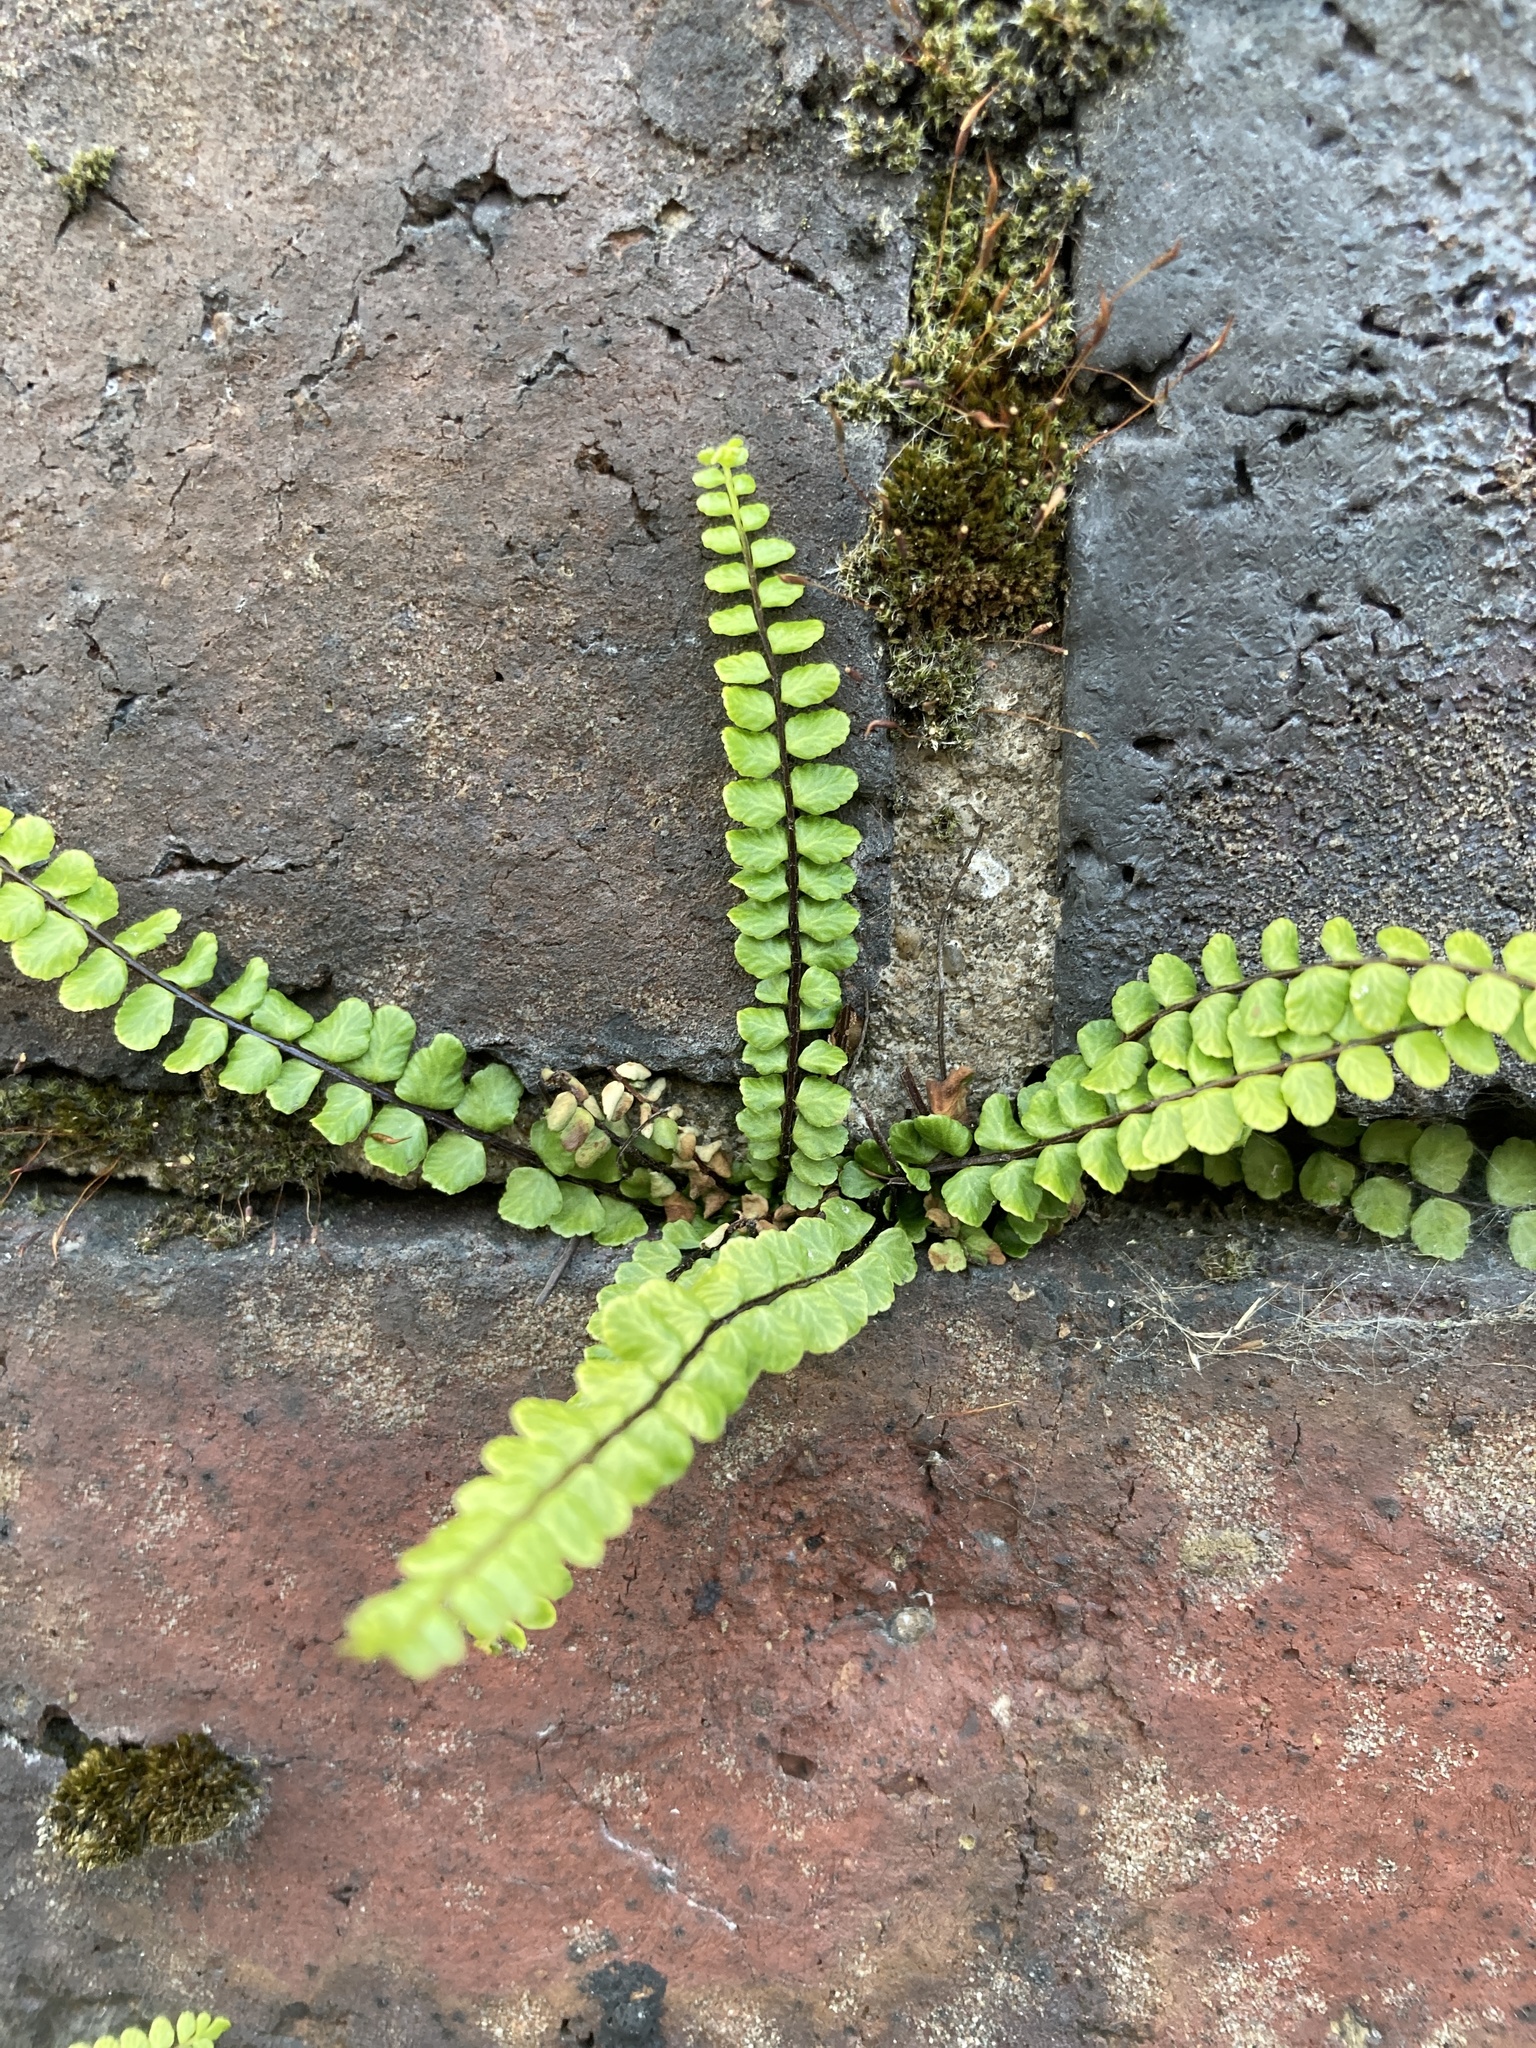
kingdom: Plantae
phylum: Tracheophyta
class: Polypodiopsida
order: Polypodiales
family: Aspleniaceae
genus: Asplenium
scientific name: Asplenium trichomanes
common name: Maidenhair spleenwort
